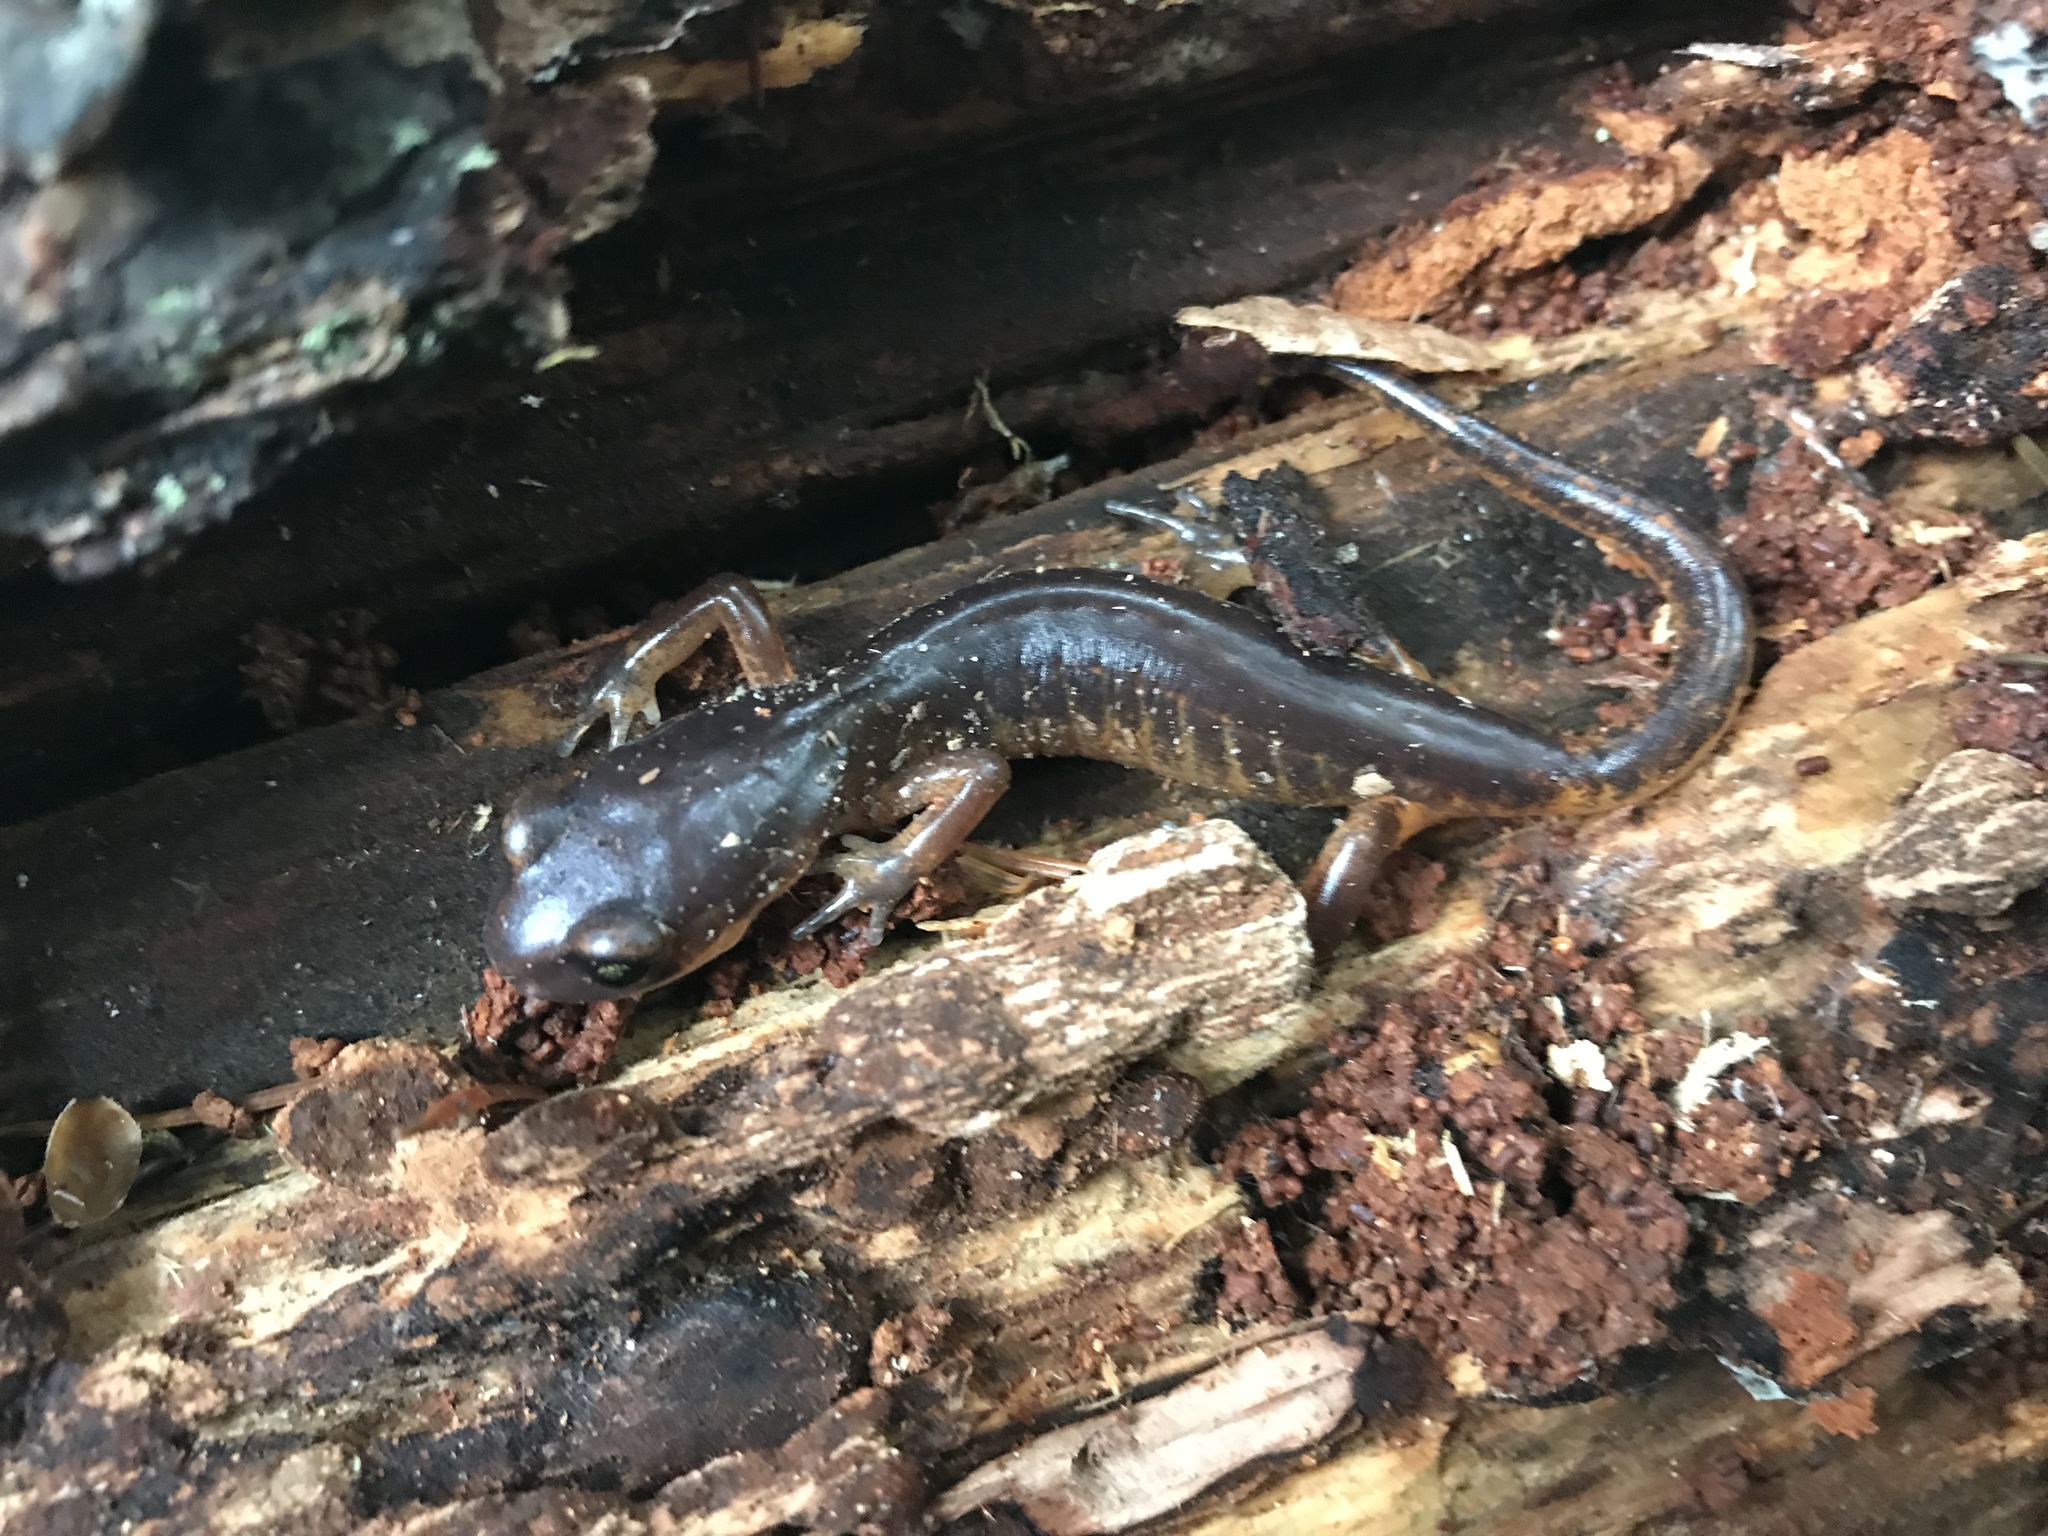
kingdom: Animalia
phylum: Chordata
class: Amphibia
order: Caudata
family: Plethodontidae
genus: Ensatina
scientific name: Ensatina eschscholtzii
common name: Ensatina
